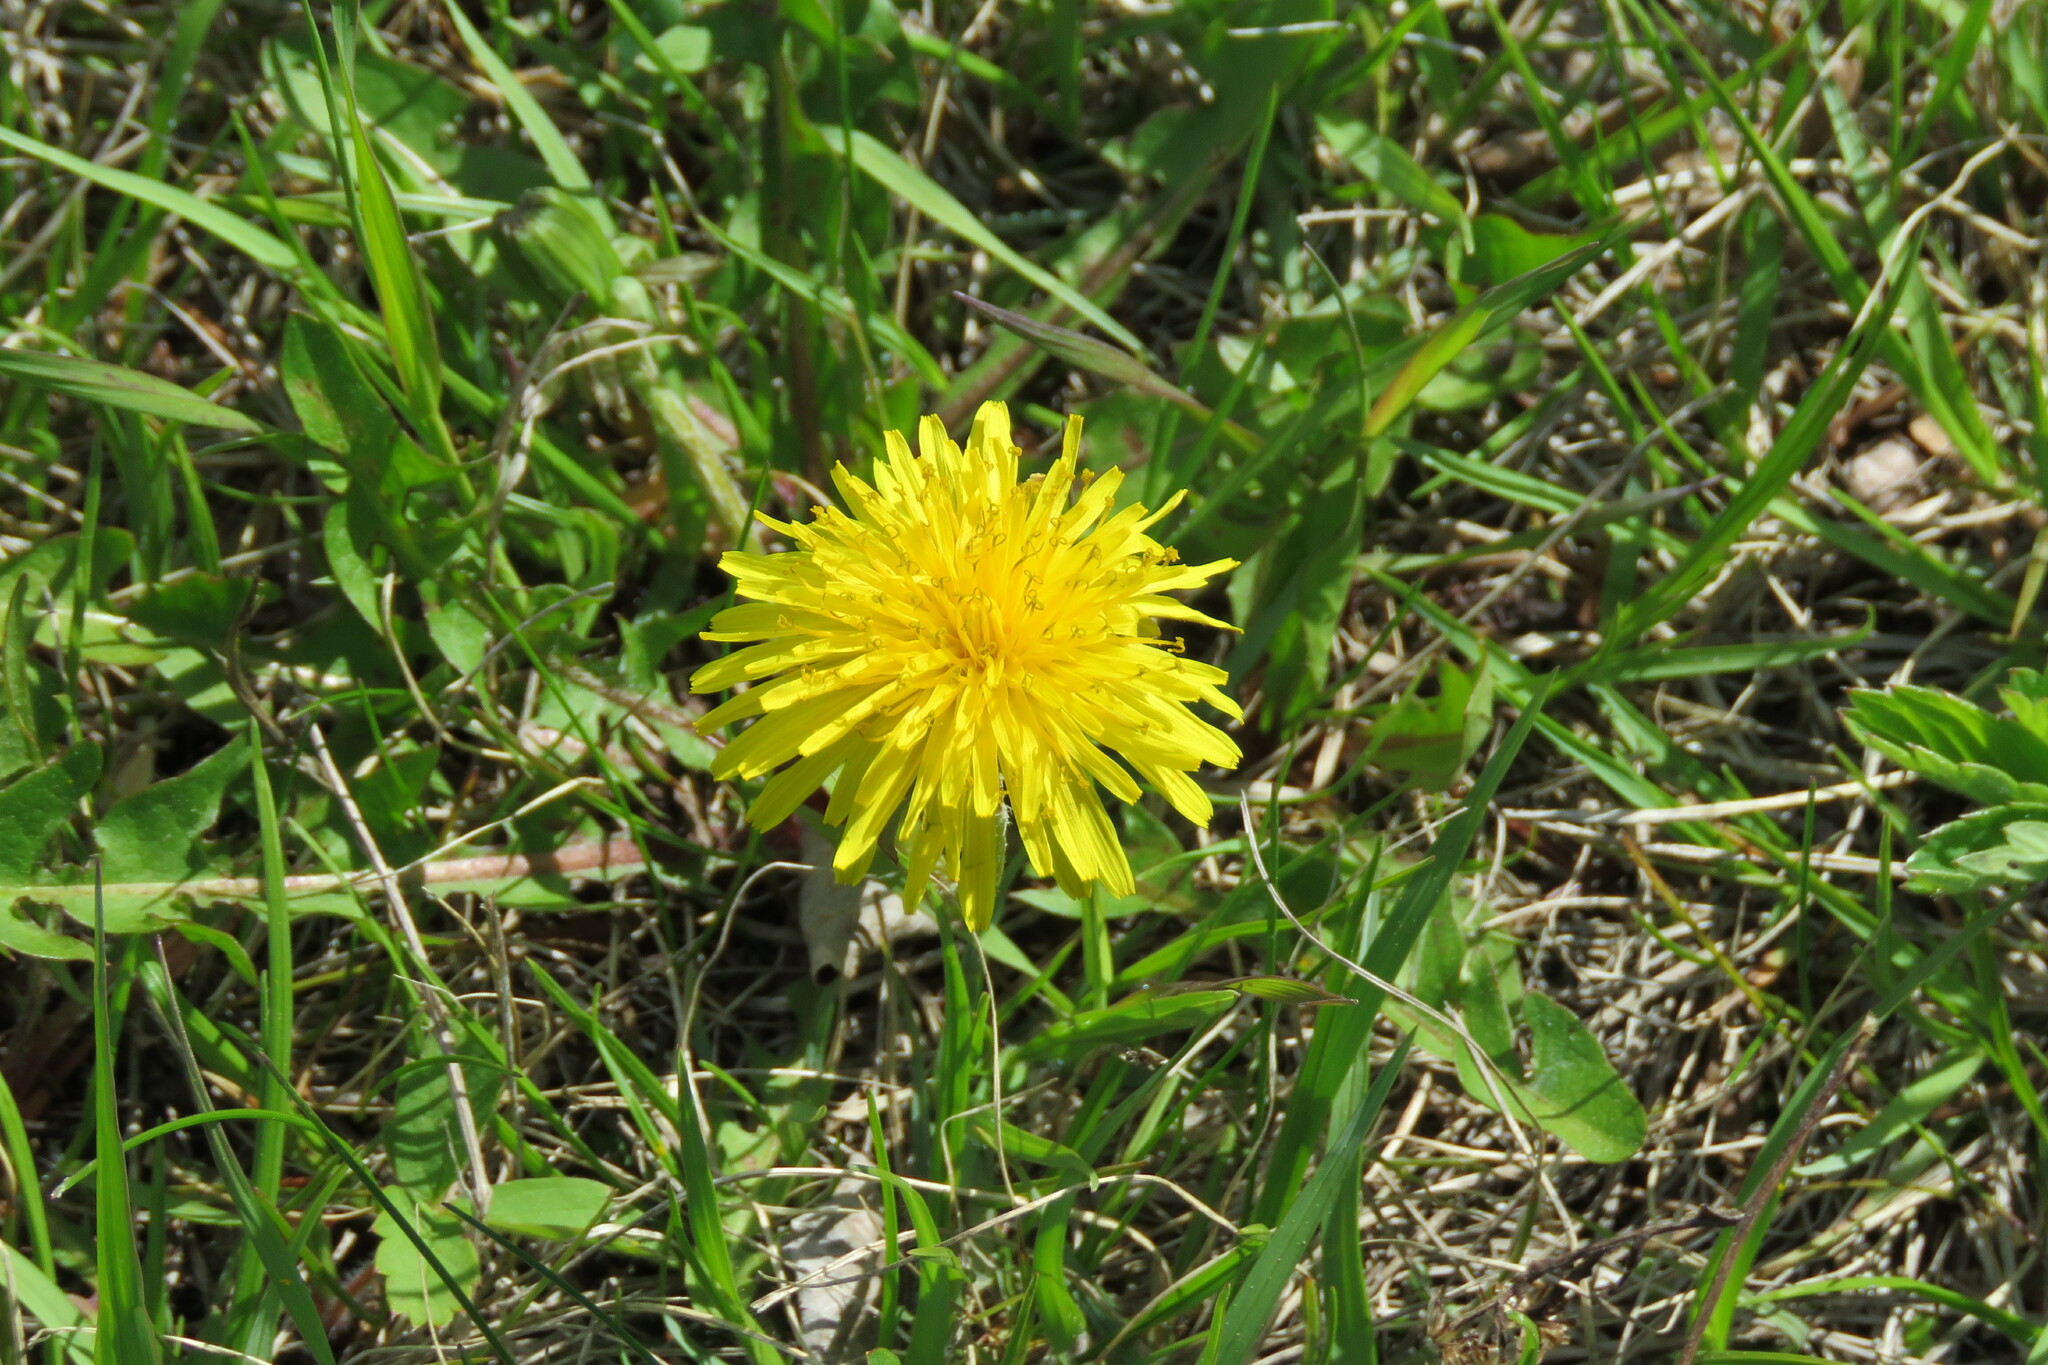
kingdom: Plantae
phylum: Tracheophyta
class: Magnoliopsida
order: Asterales
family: Asteraceae
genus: Taraxacum
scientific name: Taraxacum officinale
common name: Common dandelion
